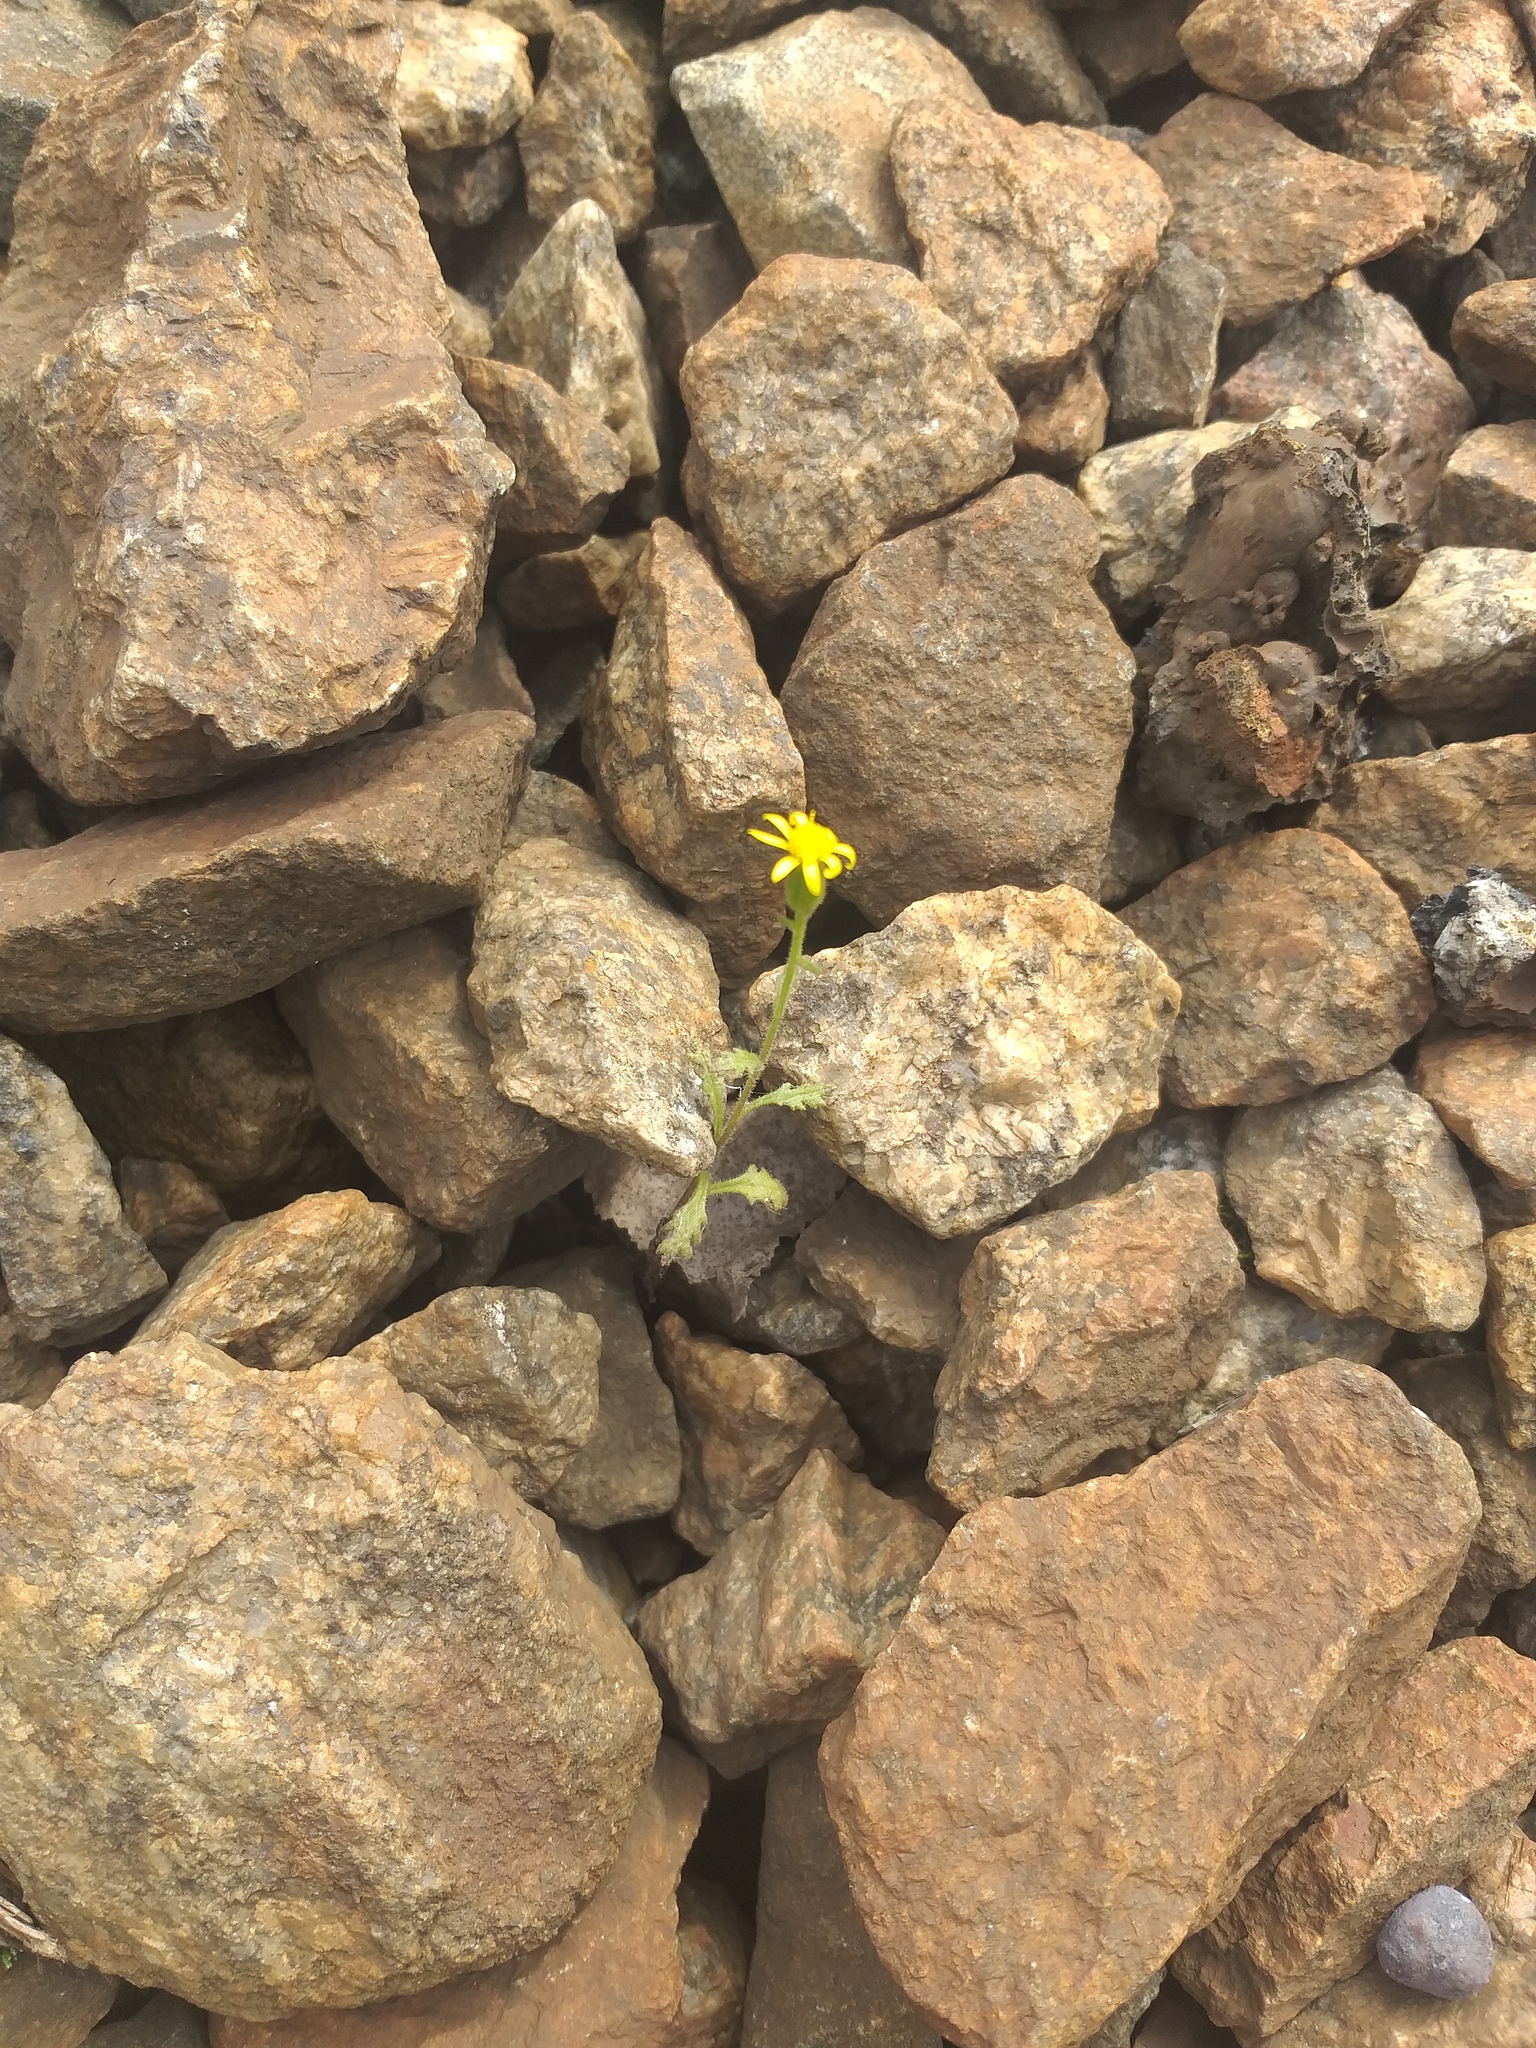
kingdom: Plantae
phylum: Tracheophyta
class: Magnoliopsida
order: Asterales
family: Asteraceae
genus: Senecio
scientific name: Senecio viscosus
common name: Sticky groundsel
